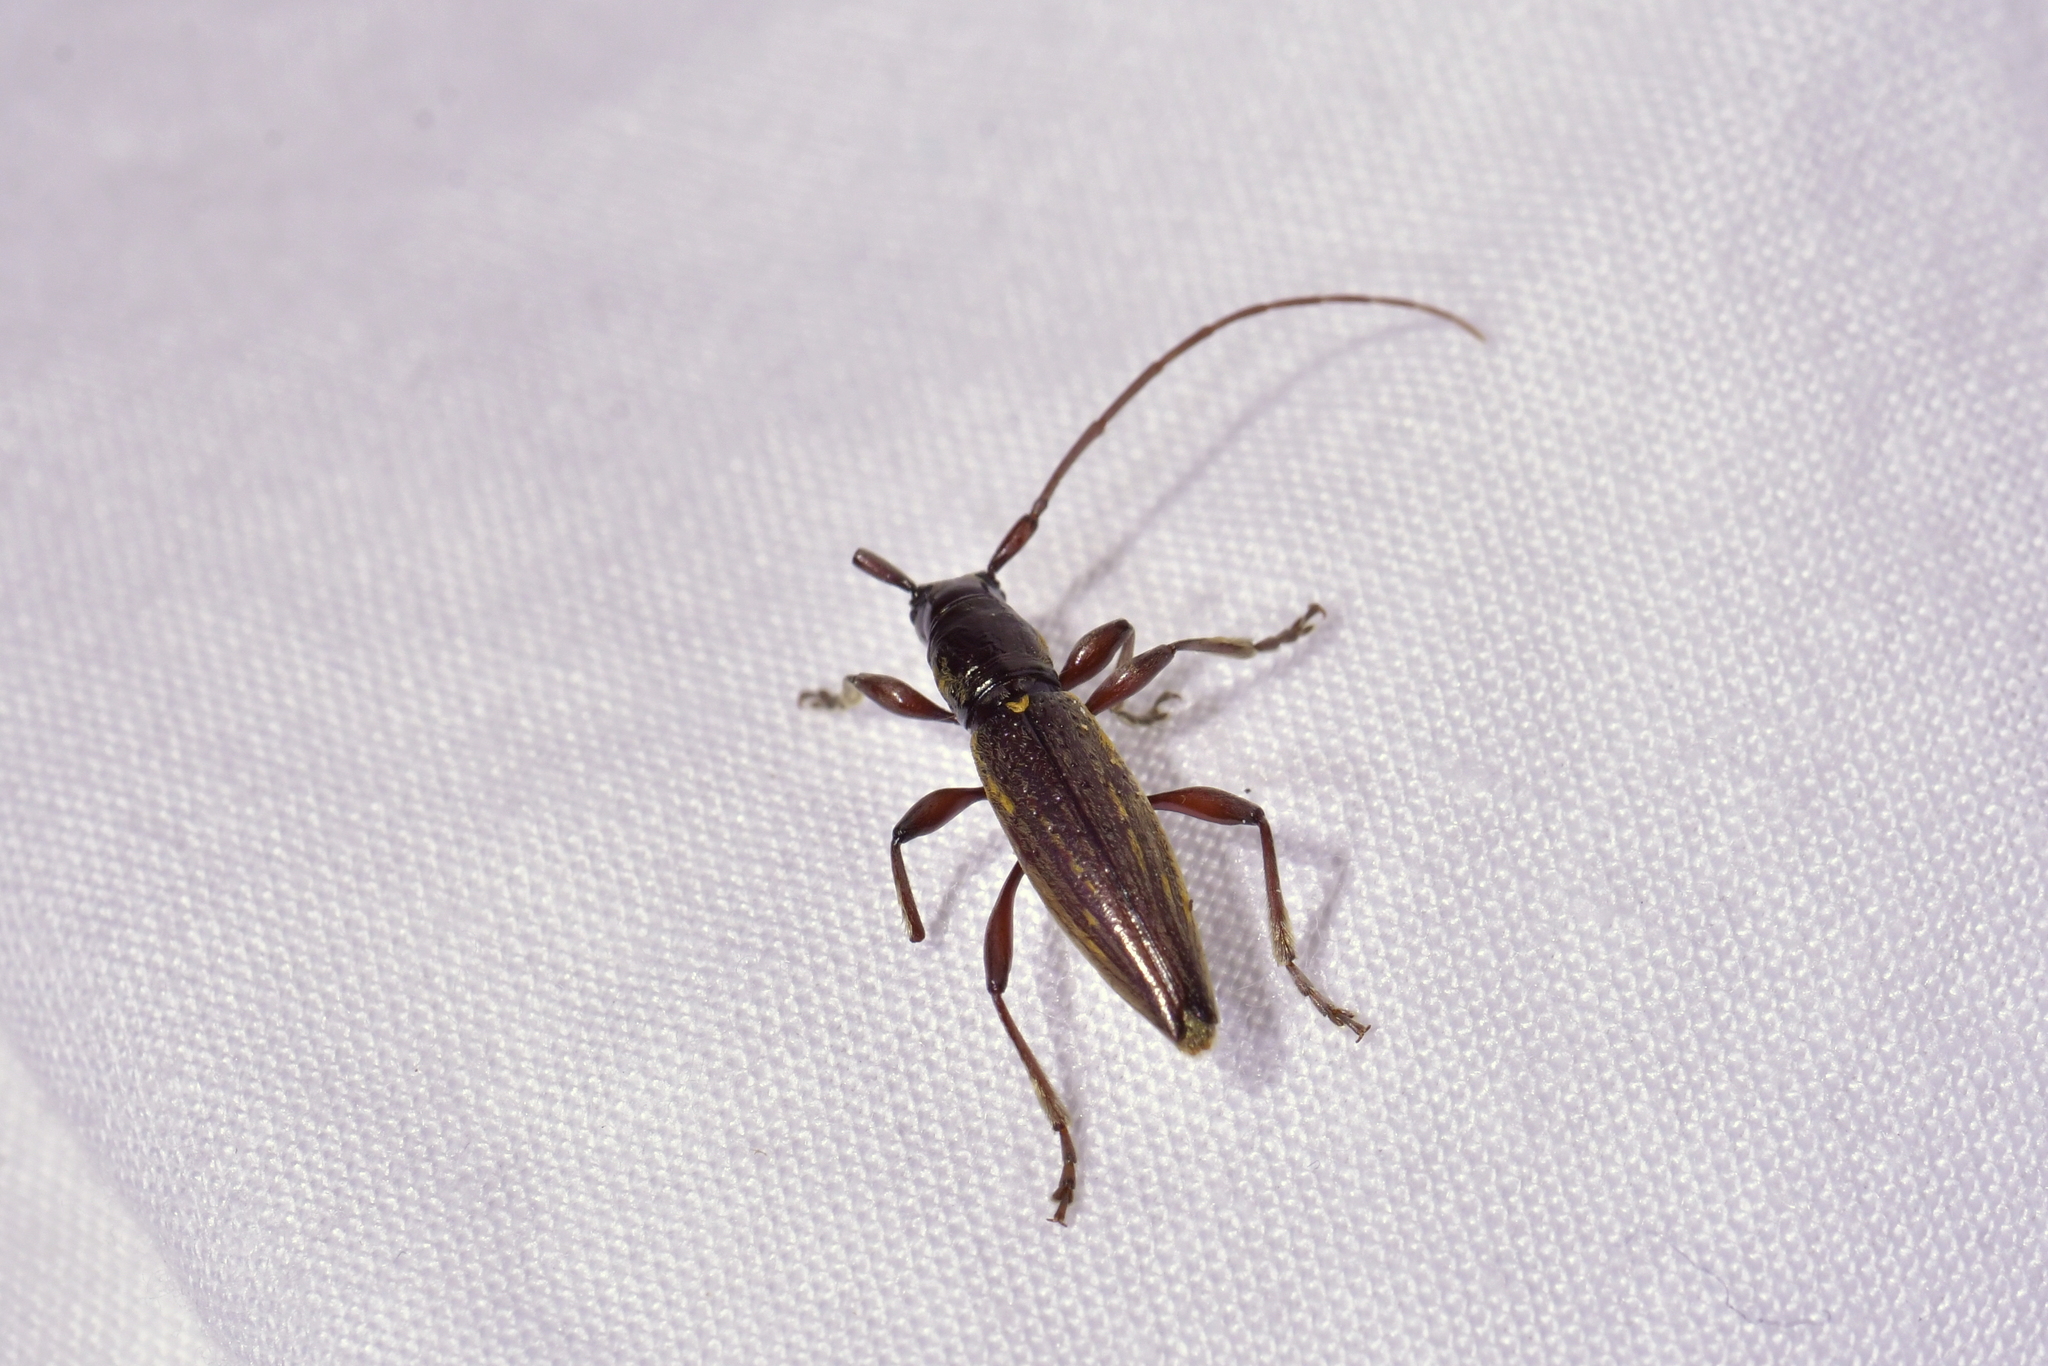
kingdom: Animalia
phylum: Arthropoda
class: Insecta
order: Coleoptera
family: Cerambycidae
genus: Xylotoles
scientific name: Xylotoles lynceus
